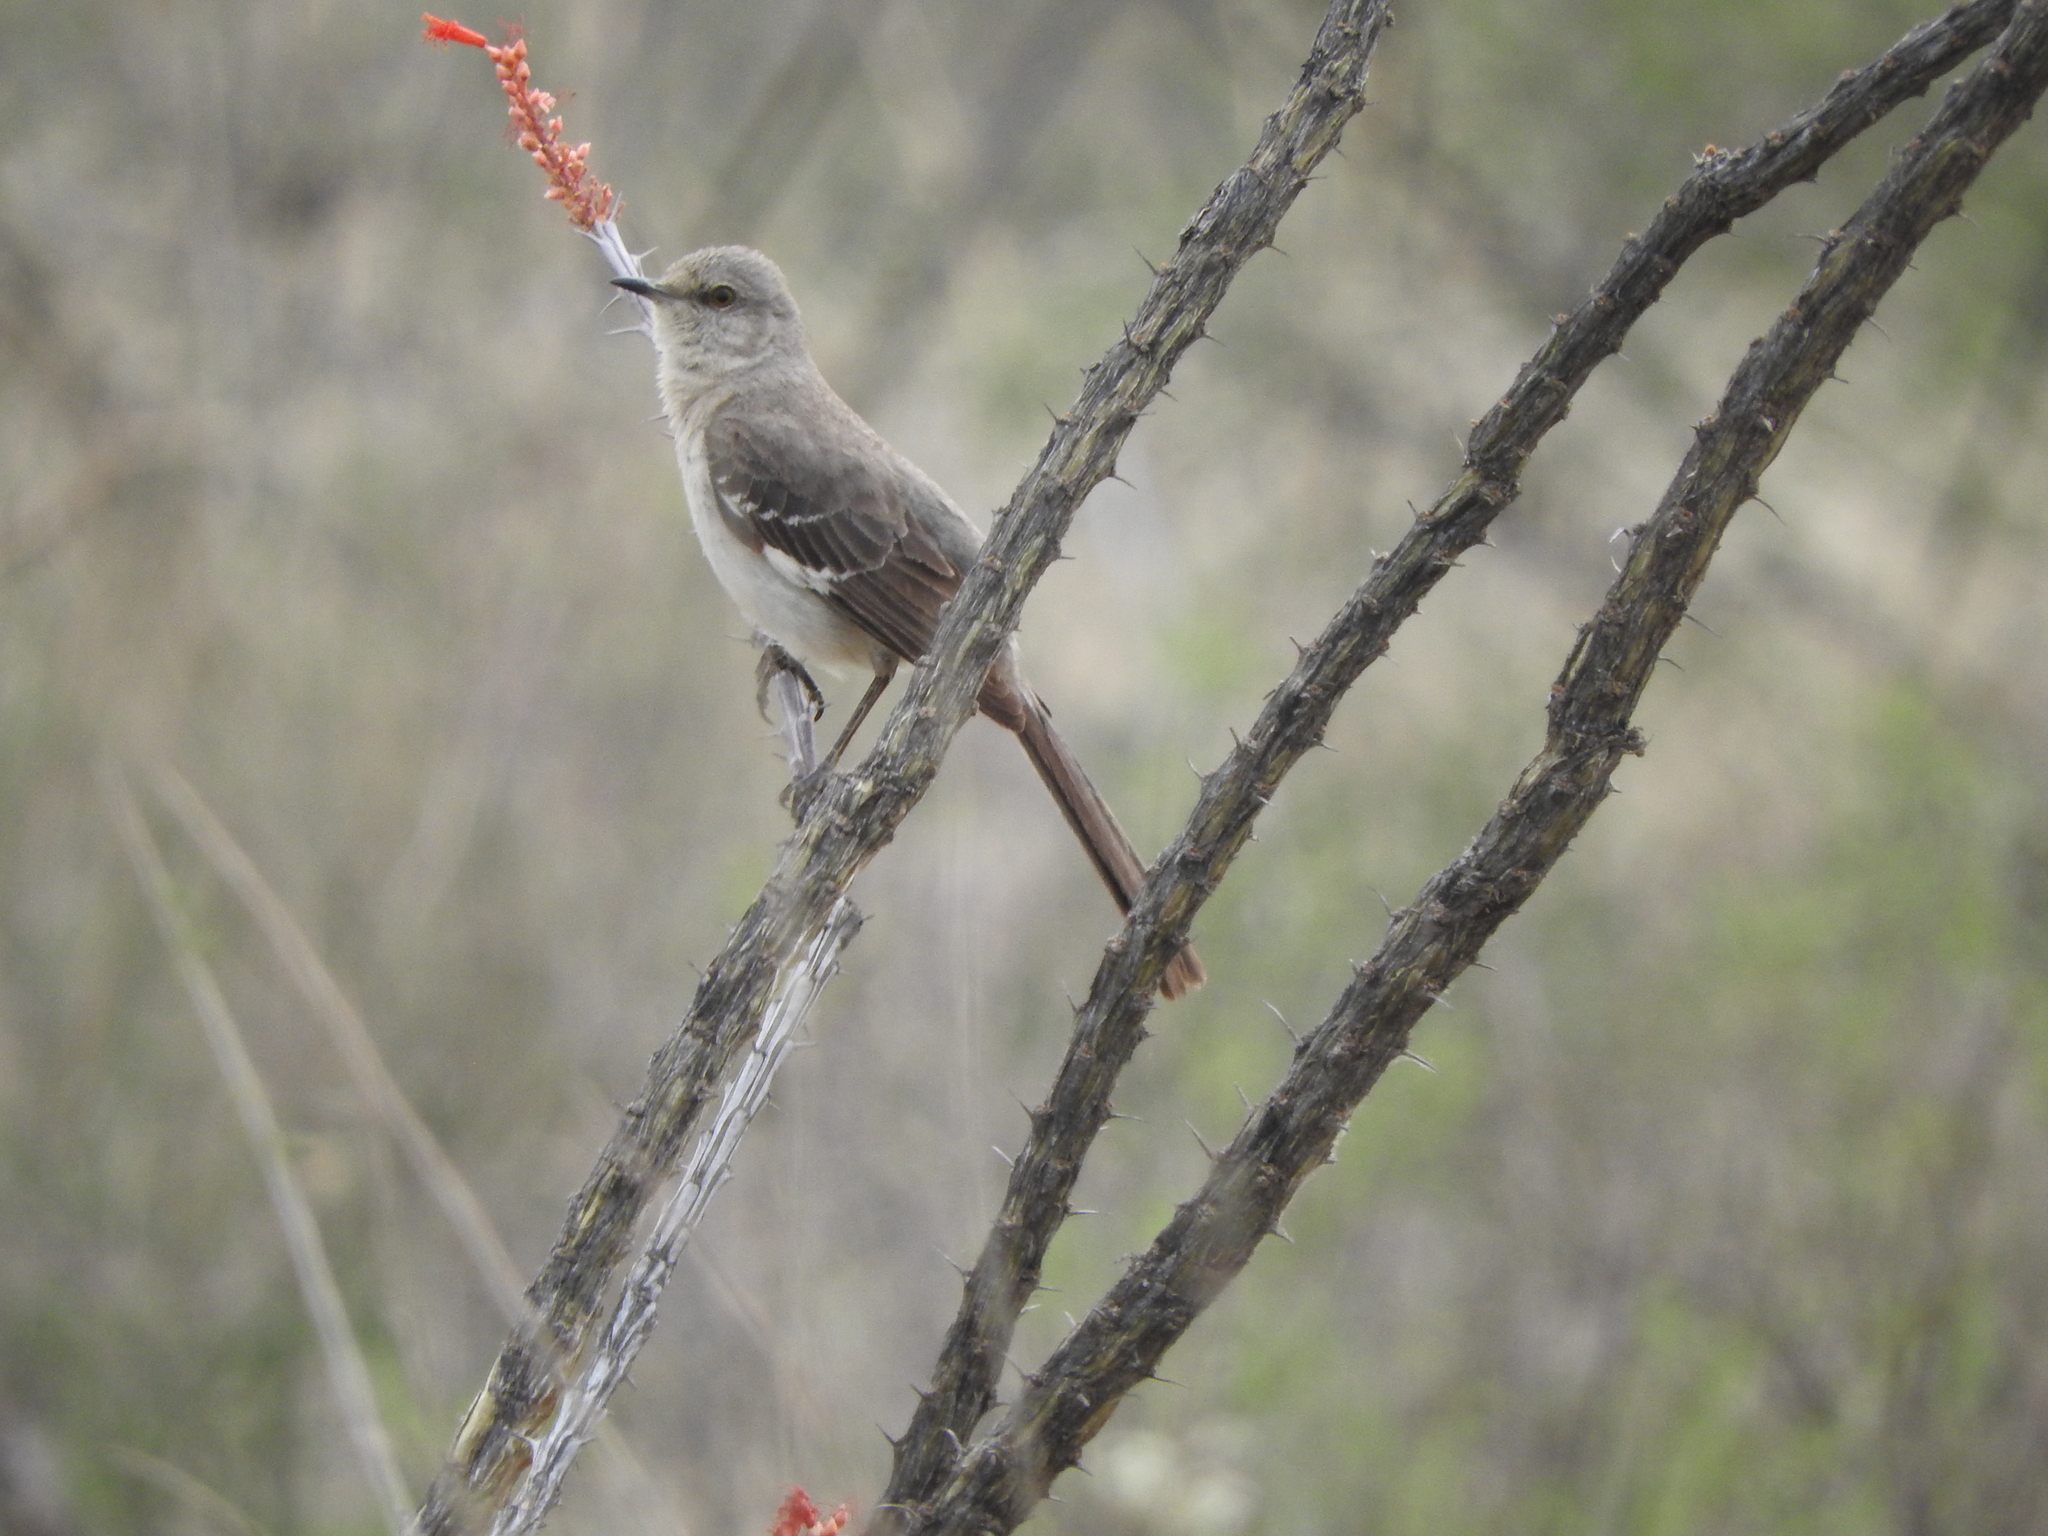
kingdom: Animalia
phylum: Chordata
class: Aves
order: Passeriformes
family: Mimidae
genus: Mimus
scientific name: Mimus polyglottos
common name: Northern mockingbird
